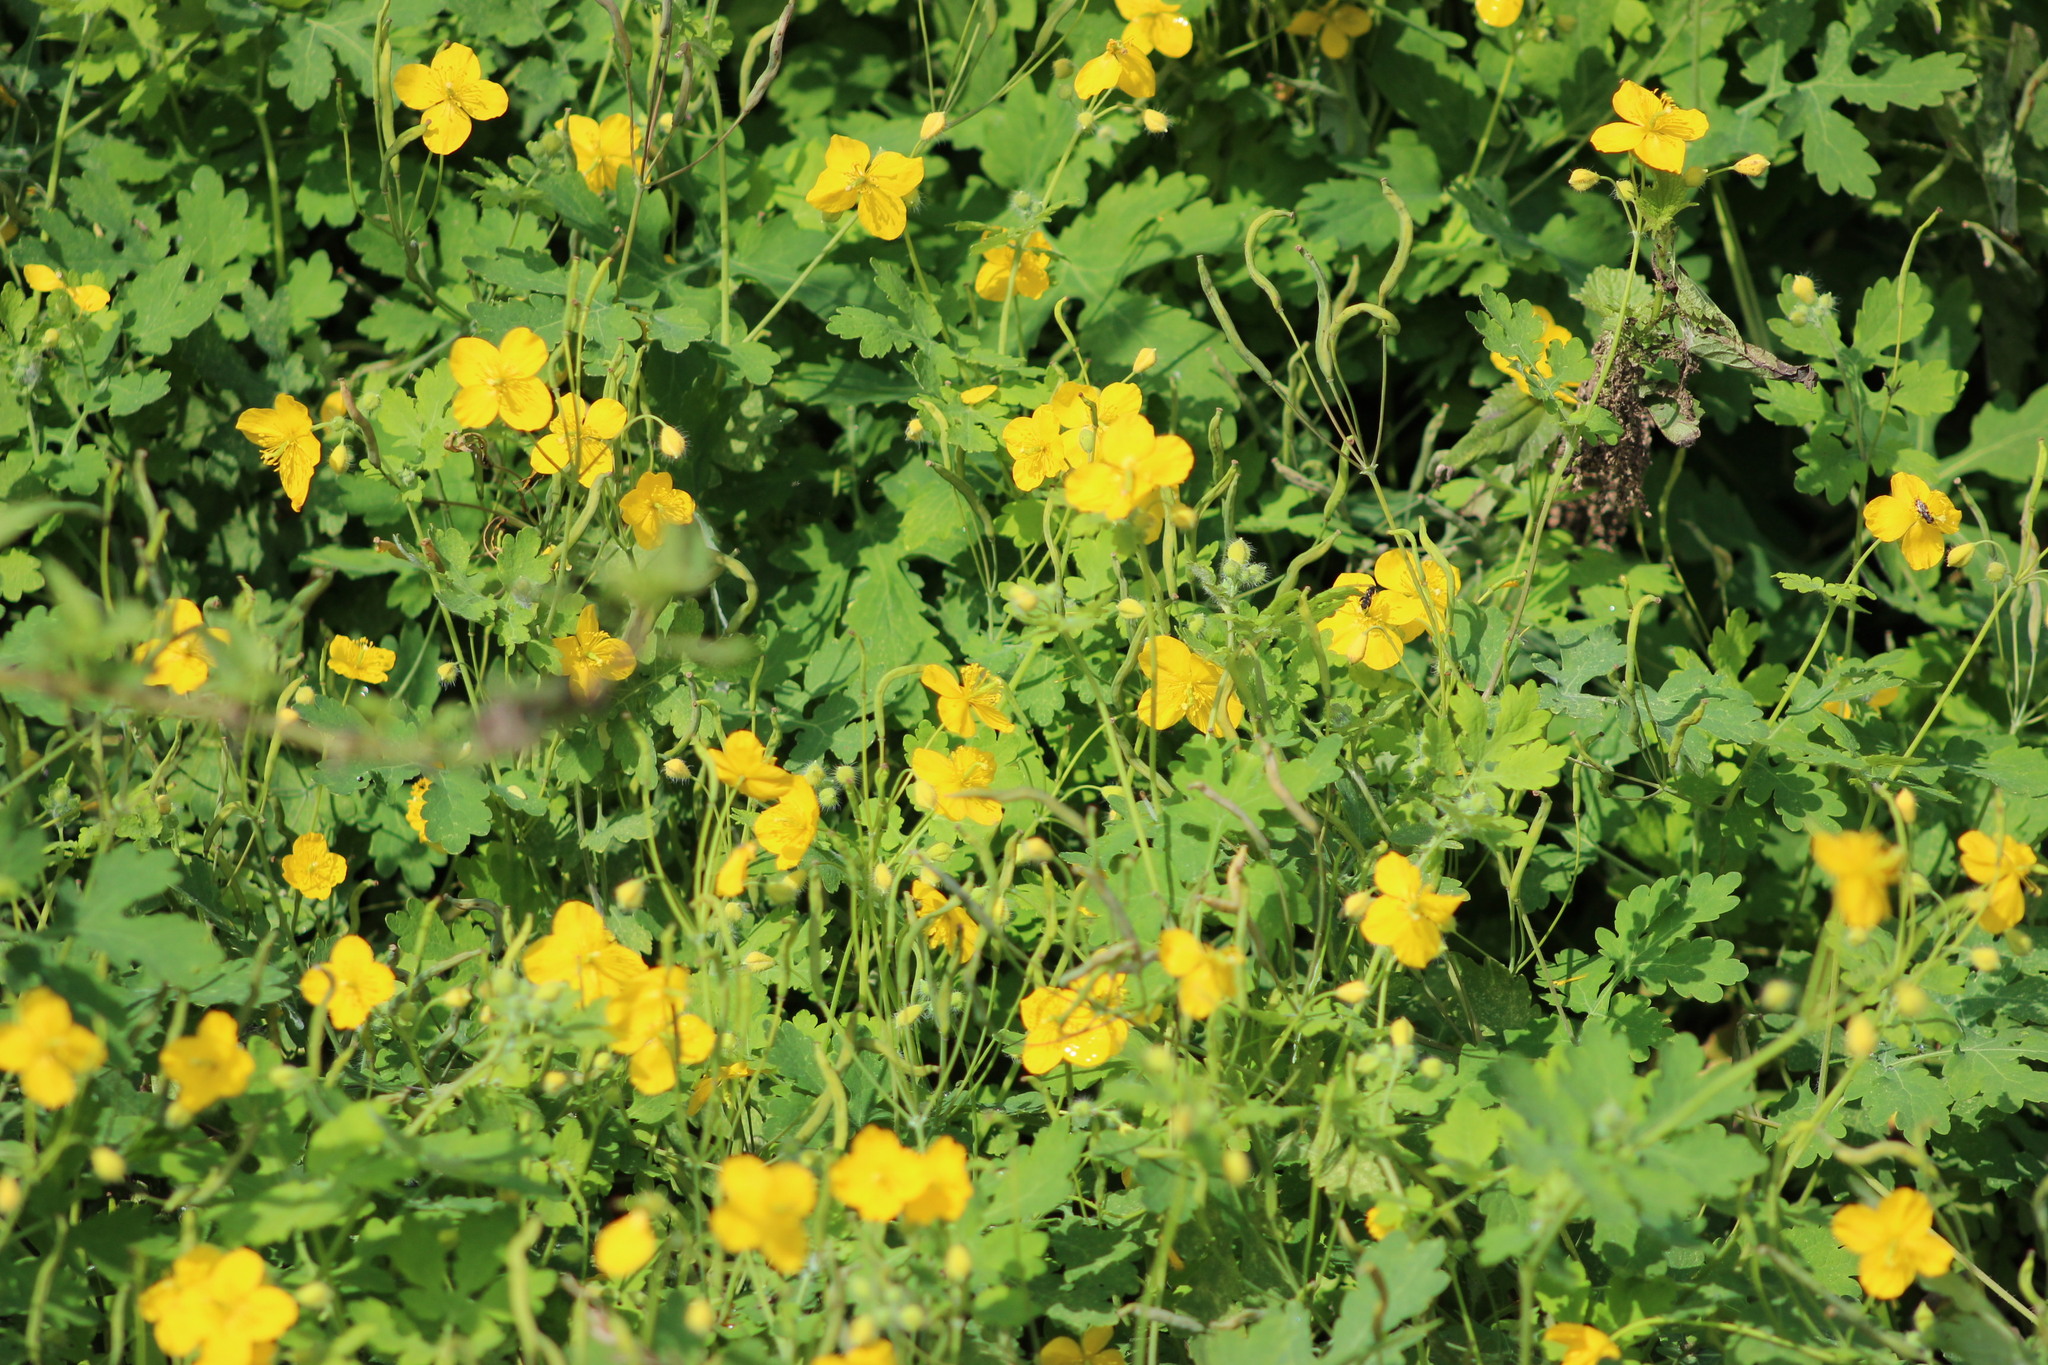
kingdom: Plantae
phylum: Tracheophyta
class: Magnoliopsida
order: Ranunculales
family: Papaveraceae
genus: Chelidonium
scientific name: Chelidonium majus
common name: Greater celandine
